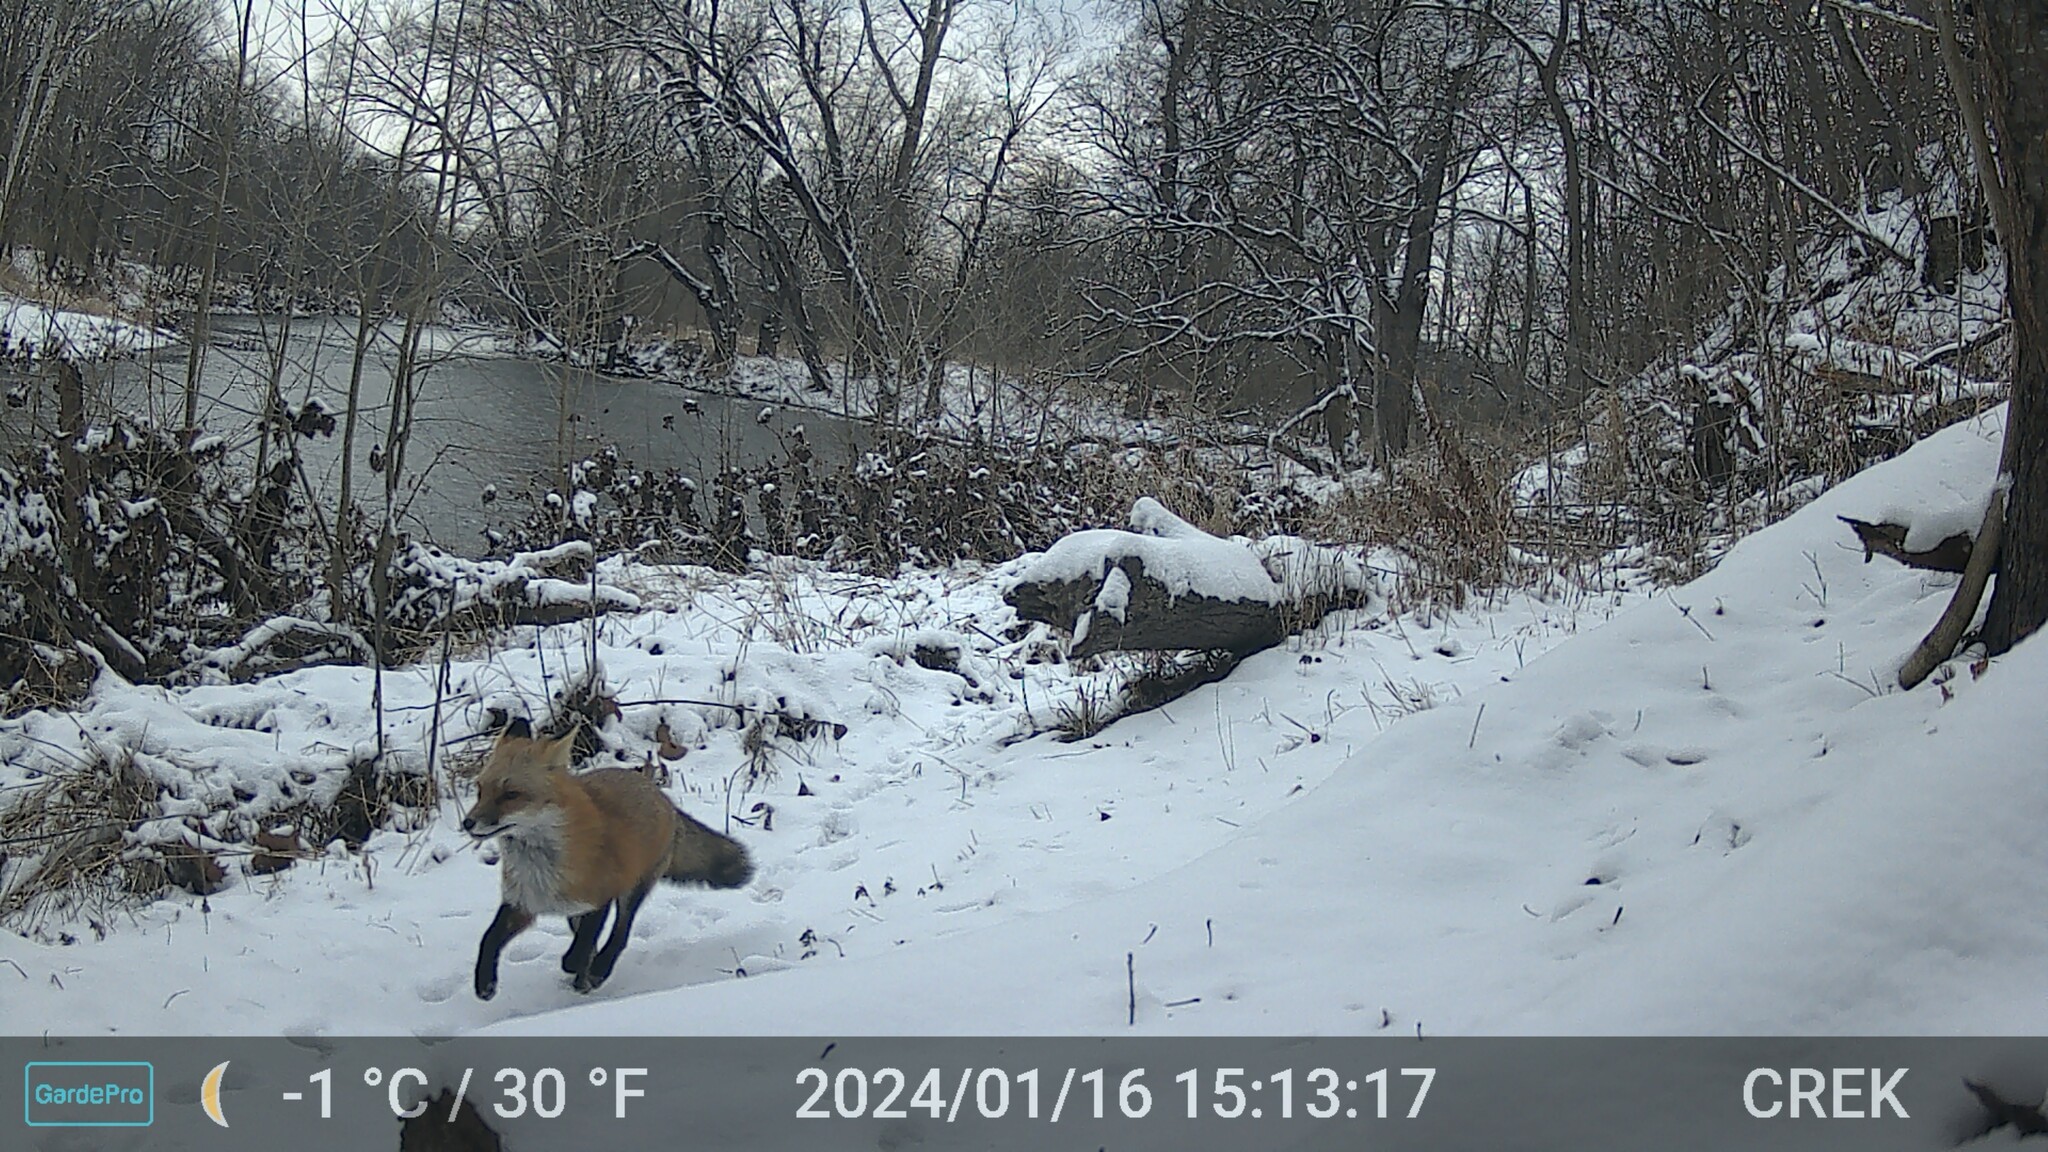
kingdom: Animalia
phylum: Chordata
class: Mammalia
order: Carnivora
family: Canidae
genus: Vulpes
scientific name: Vulpes vulpes
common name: Red fox
